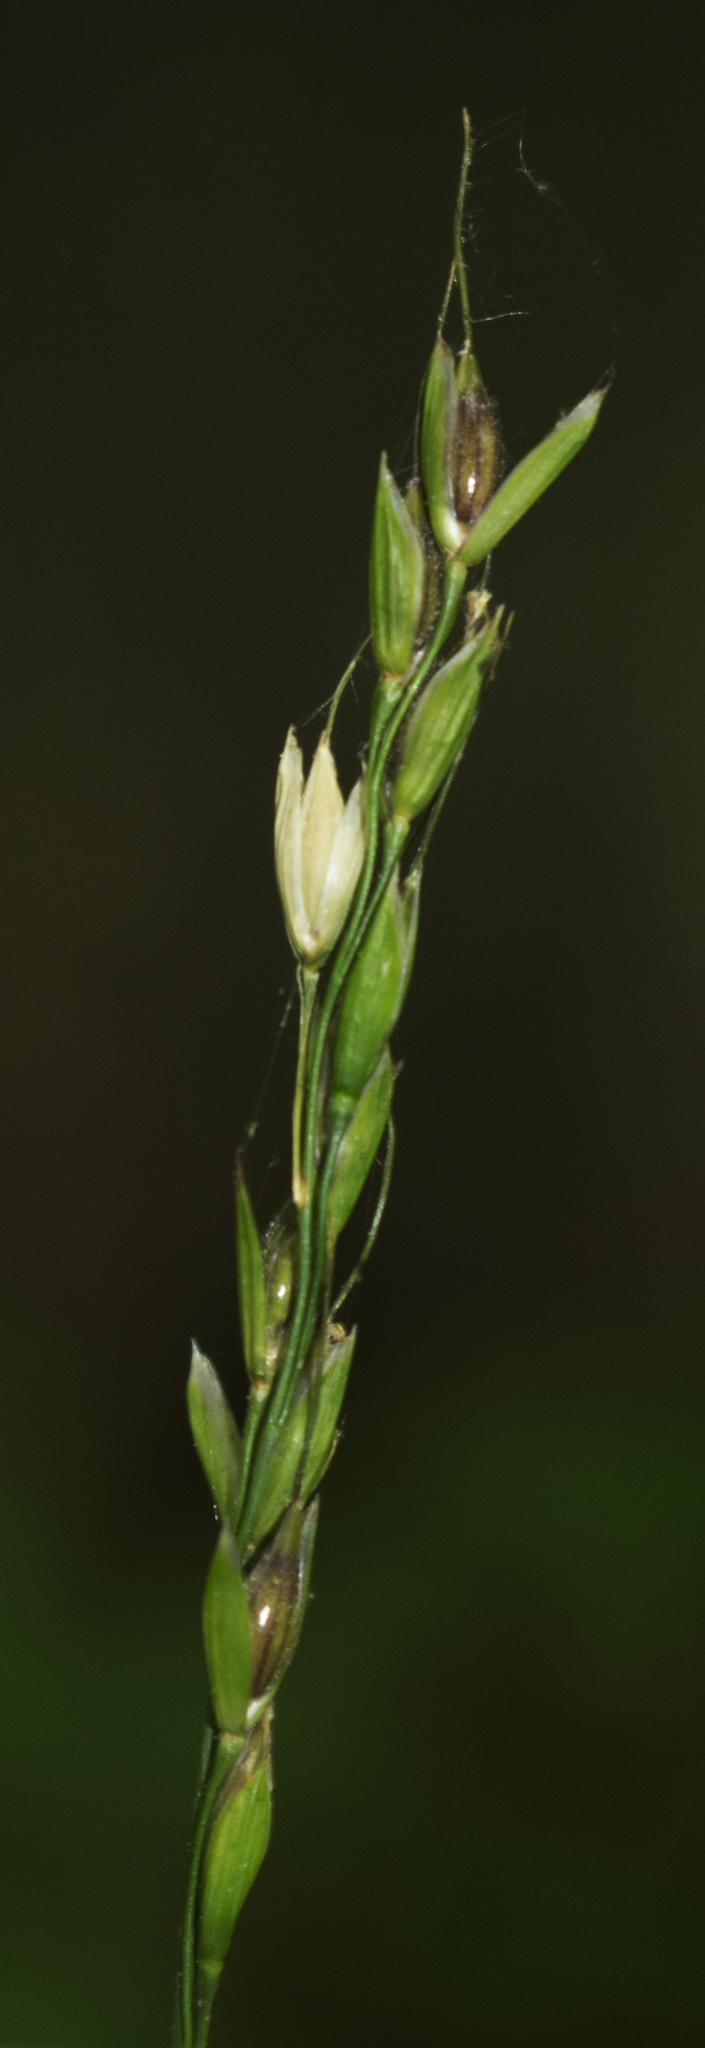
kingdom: Plantae
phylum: Tracheophyta
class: Liliopsida
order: Poales
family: Poaceae
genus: Oryzopsis
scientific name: Oryzopsis asperifolia
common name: Rough-leaved mountain rice
